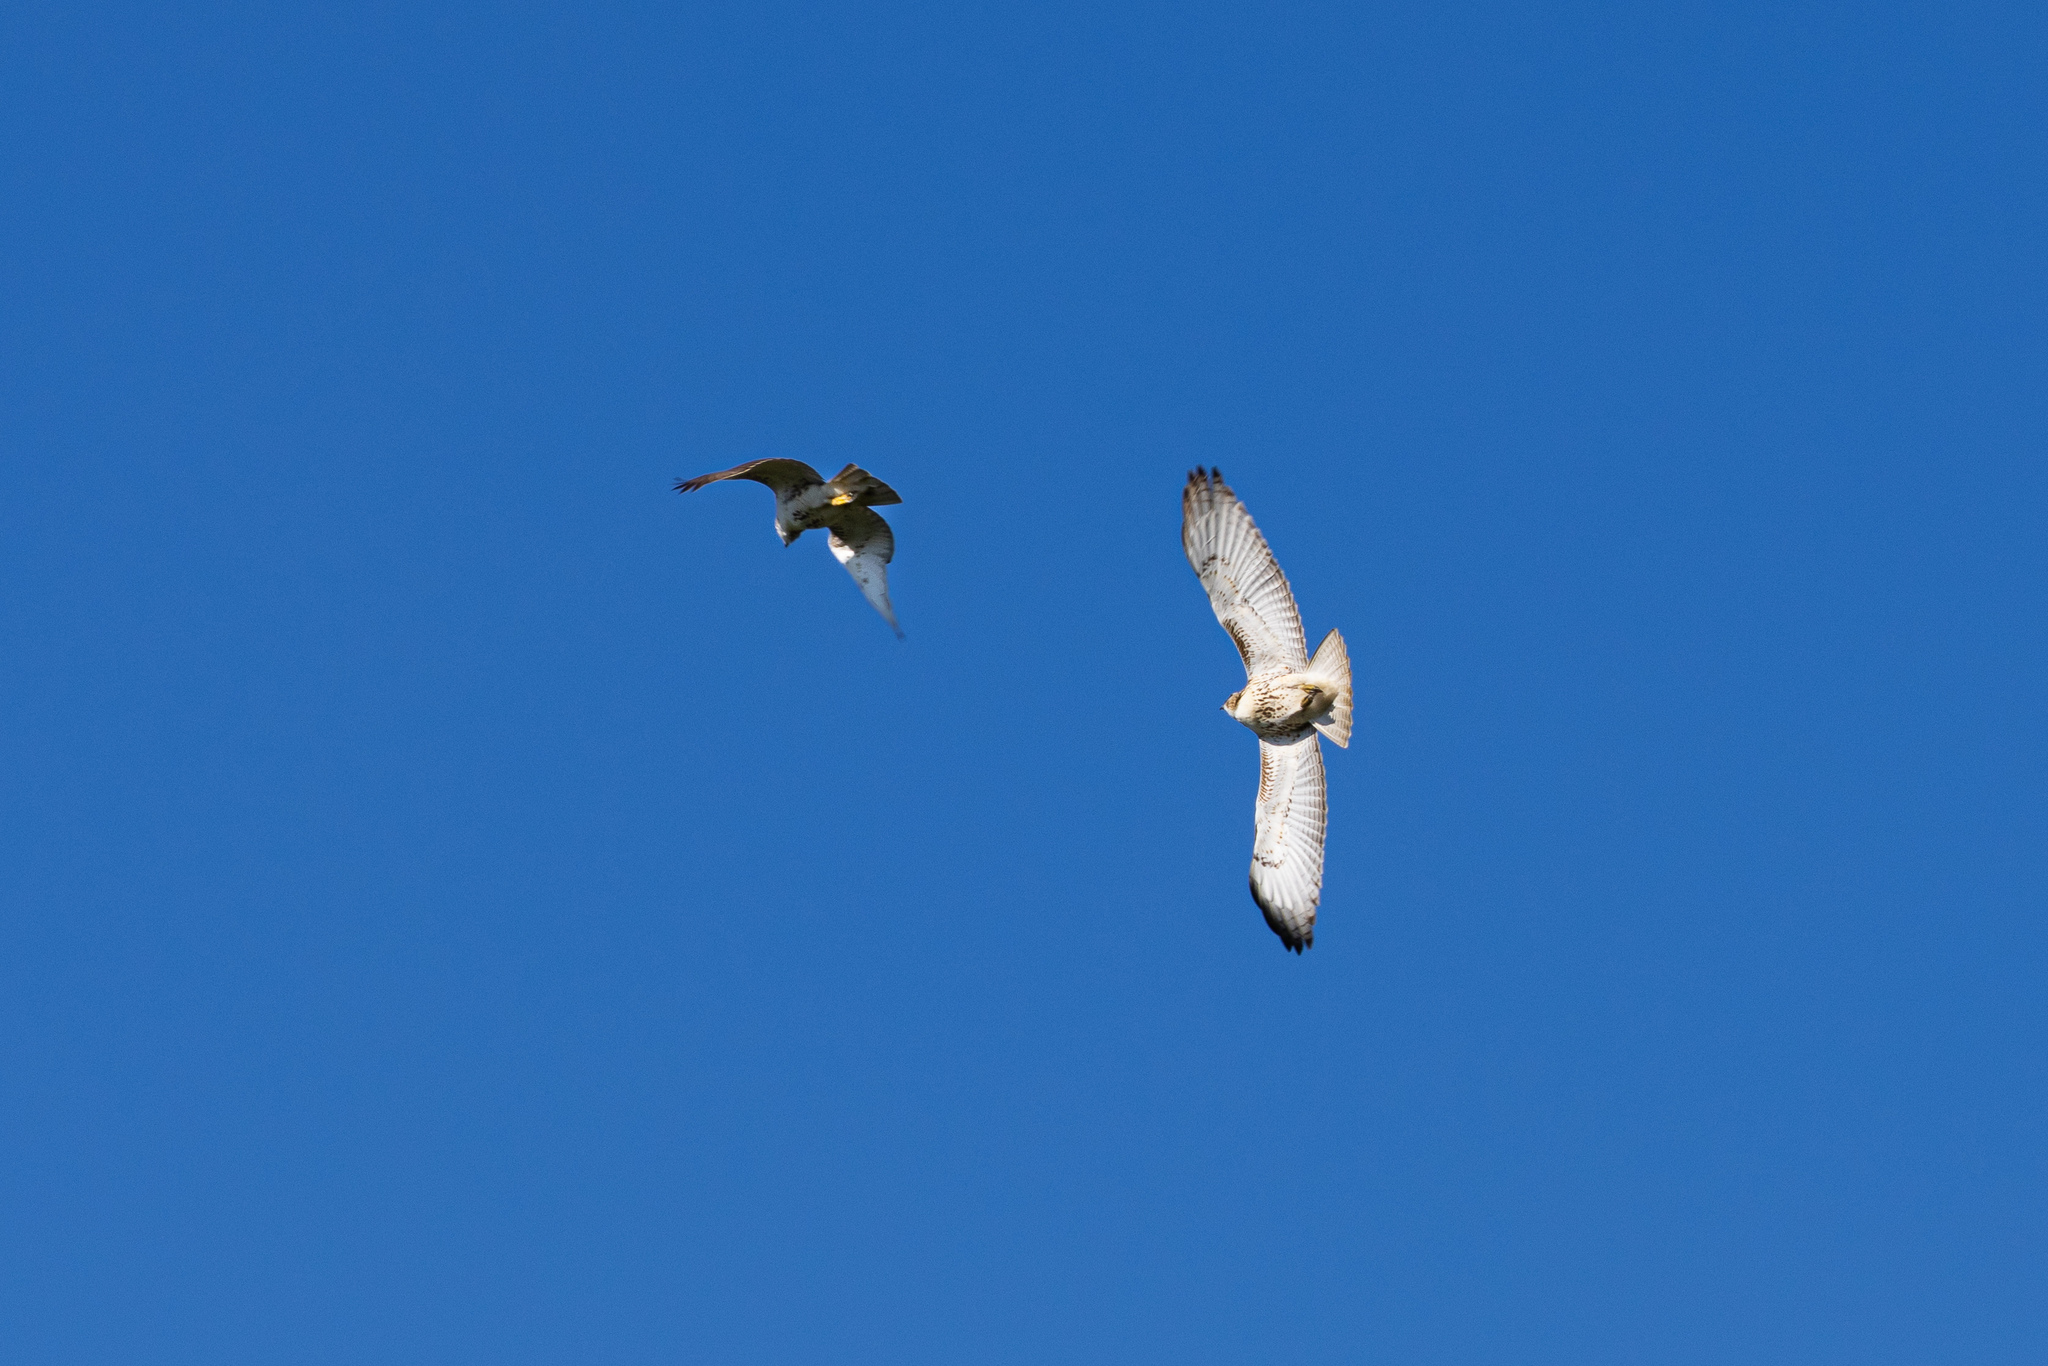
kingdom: Animalia
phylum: Chordata
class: Aves
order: Accipitriformes
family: Accipitridae
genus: Buteo
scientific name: Buteo jamaicensis
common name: Red-tailed hawk
